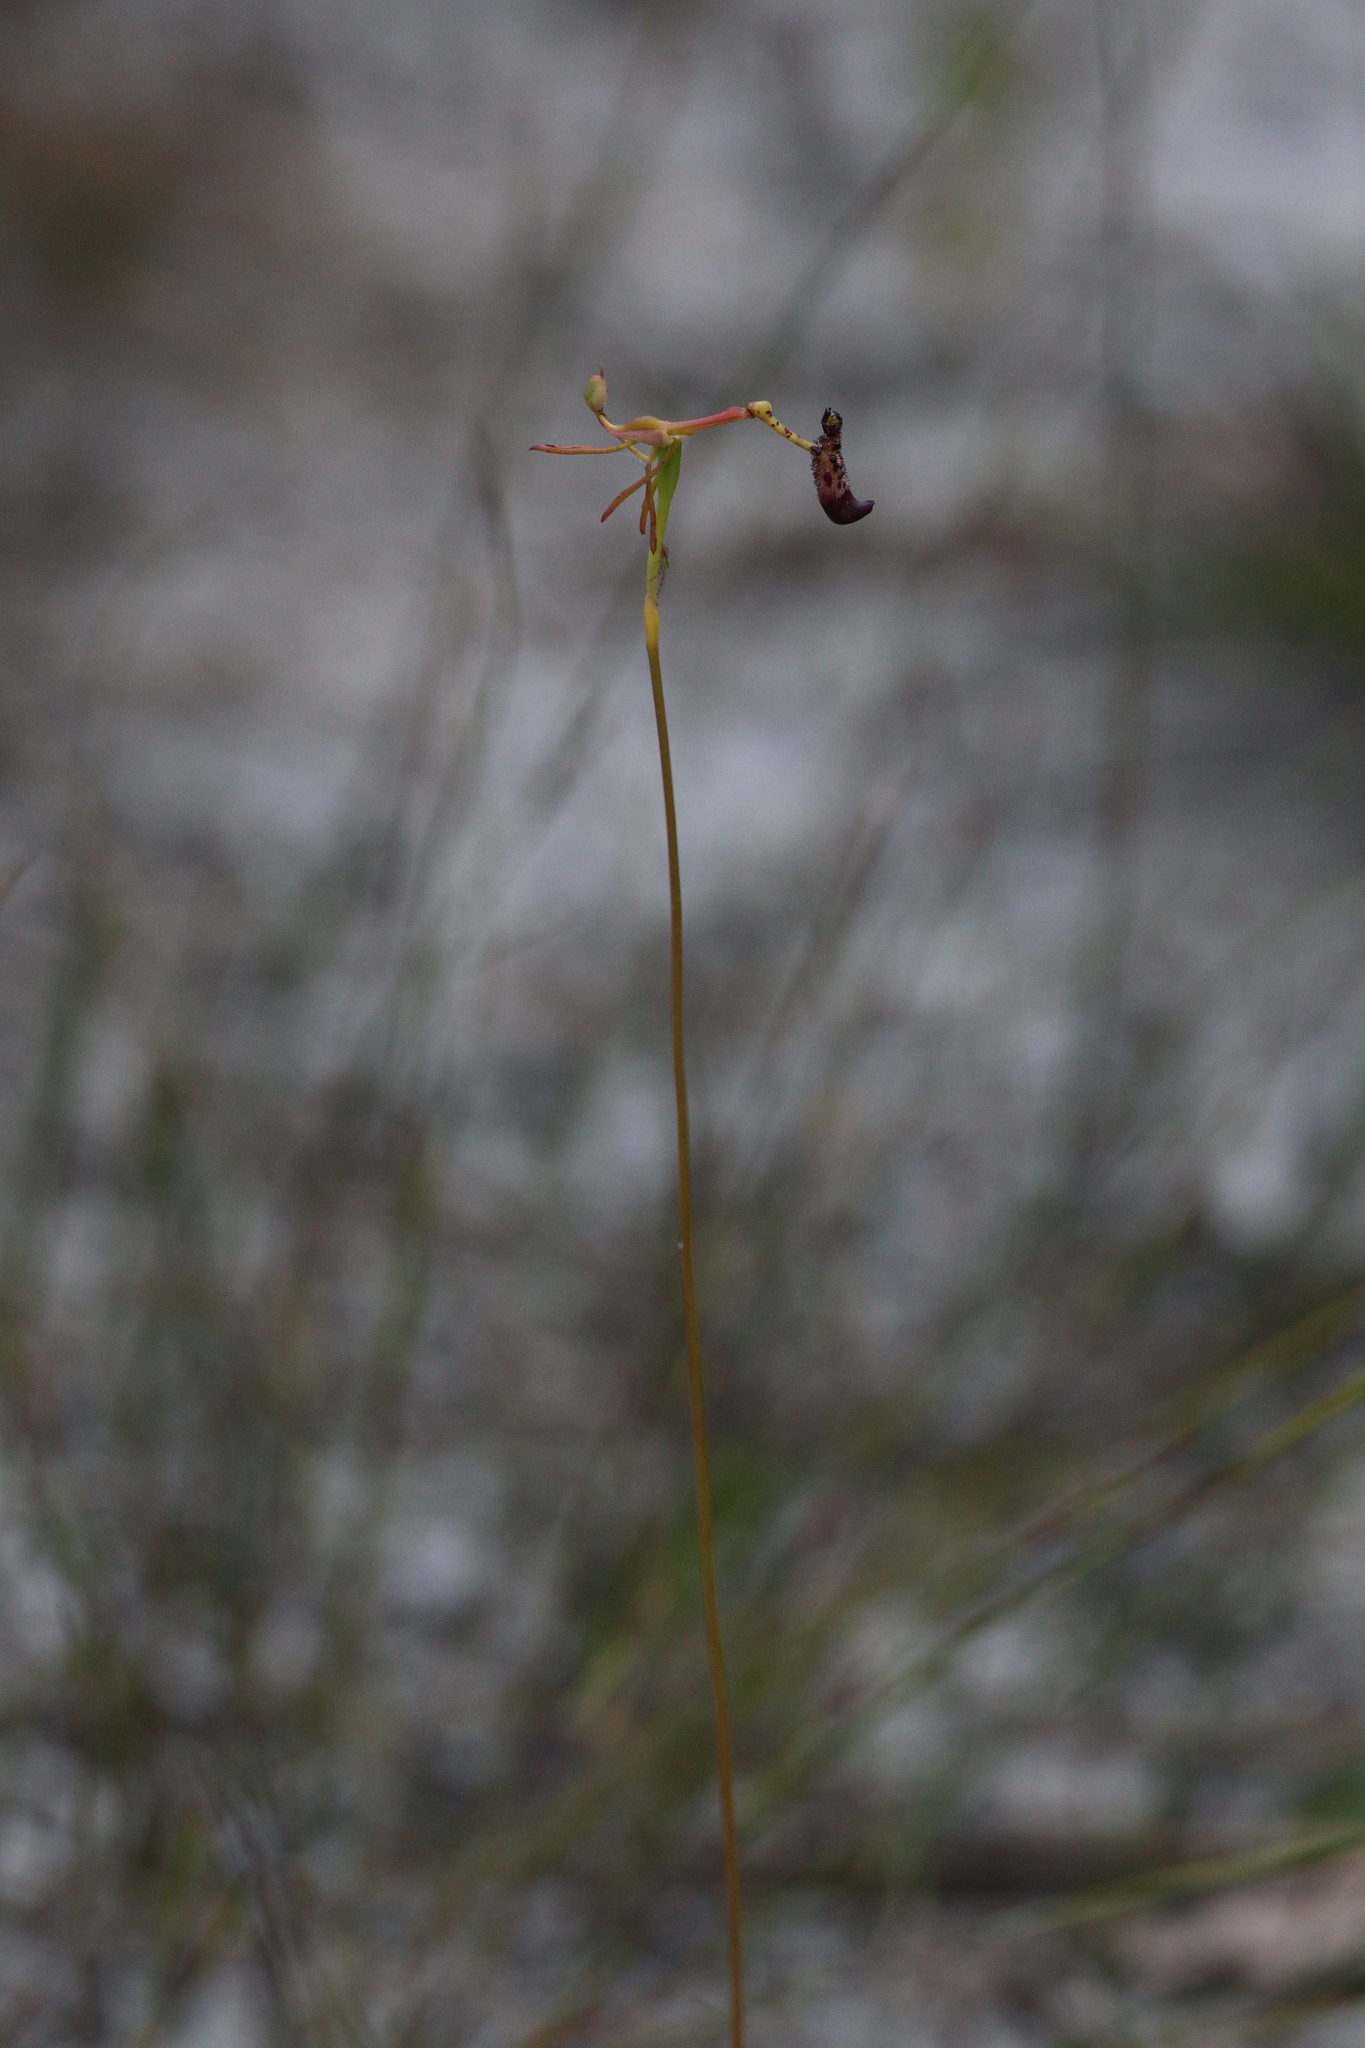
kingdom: Plantae
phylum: Tracheophyta
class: Liliopsida
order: Asparagales
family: Orchidaceae
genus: Drakaea
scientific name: Drakaea livida
